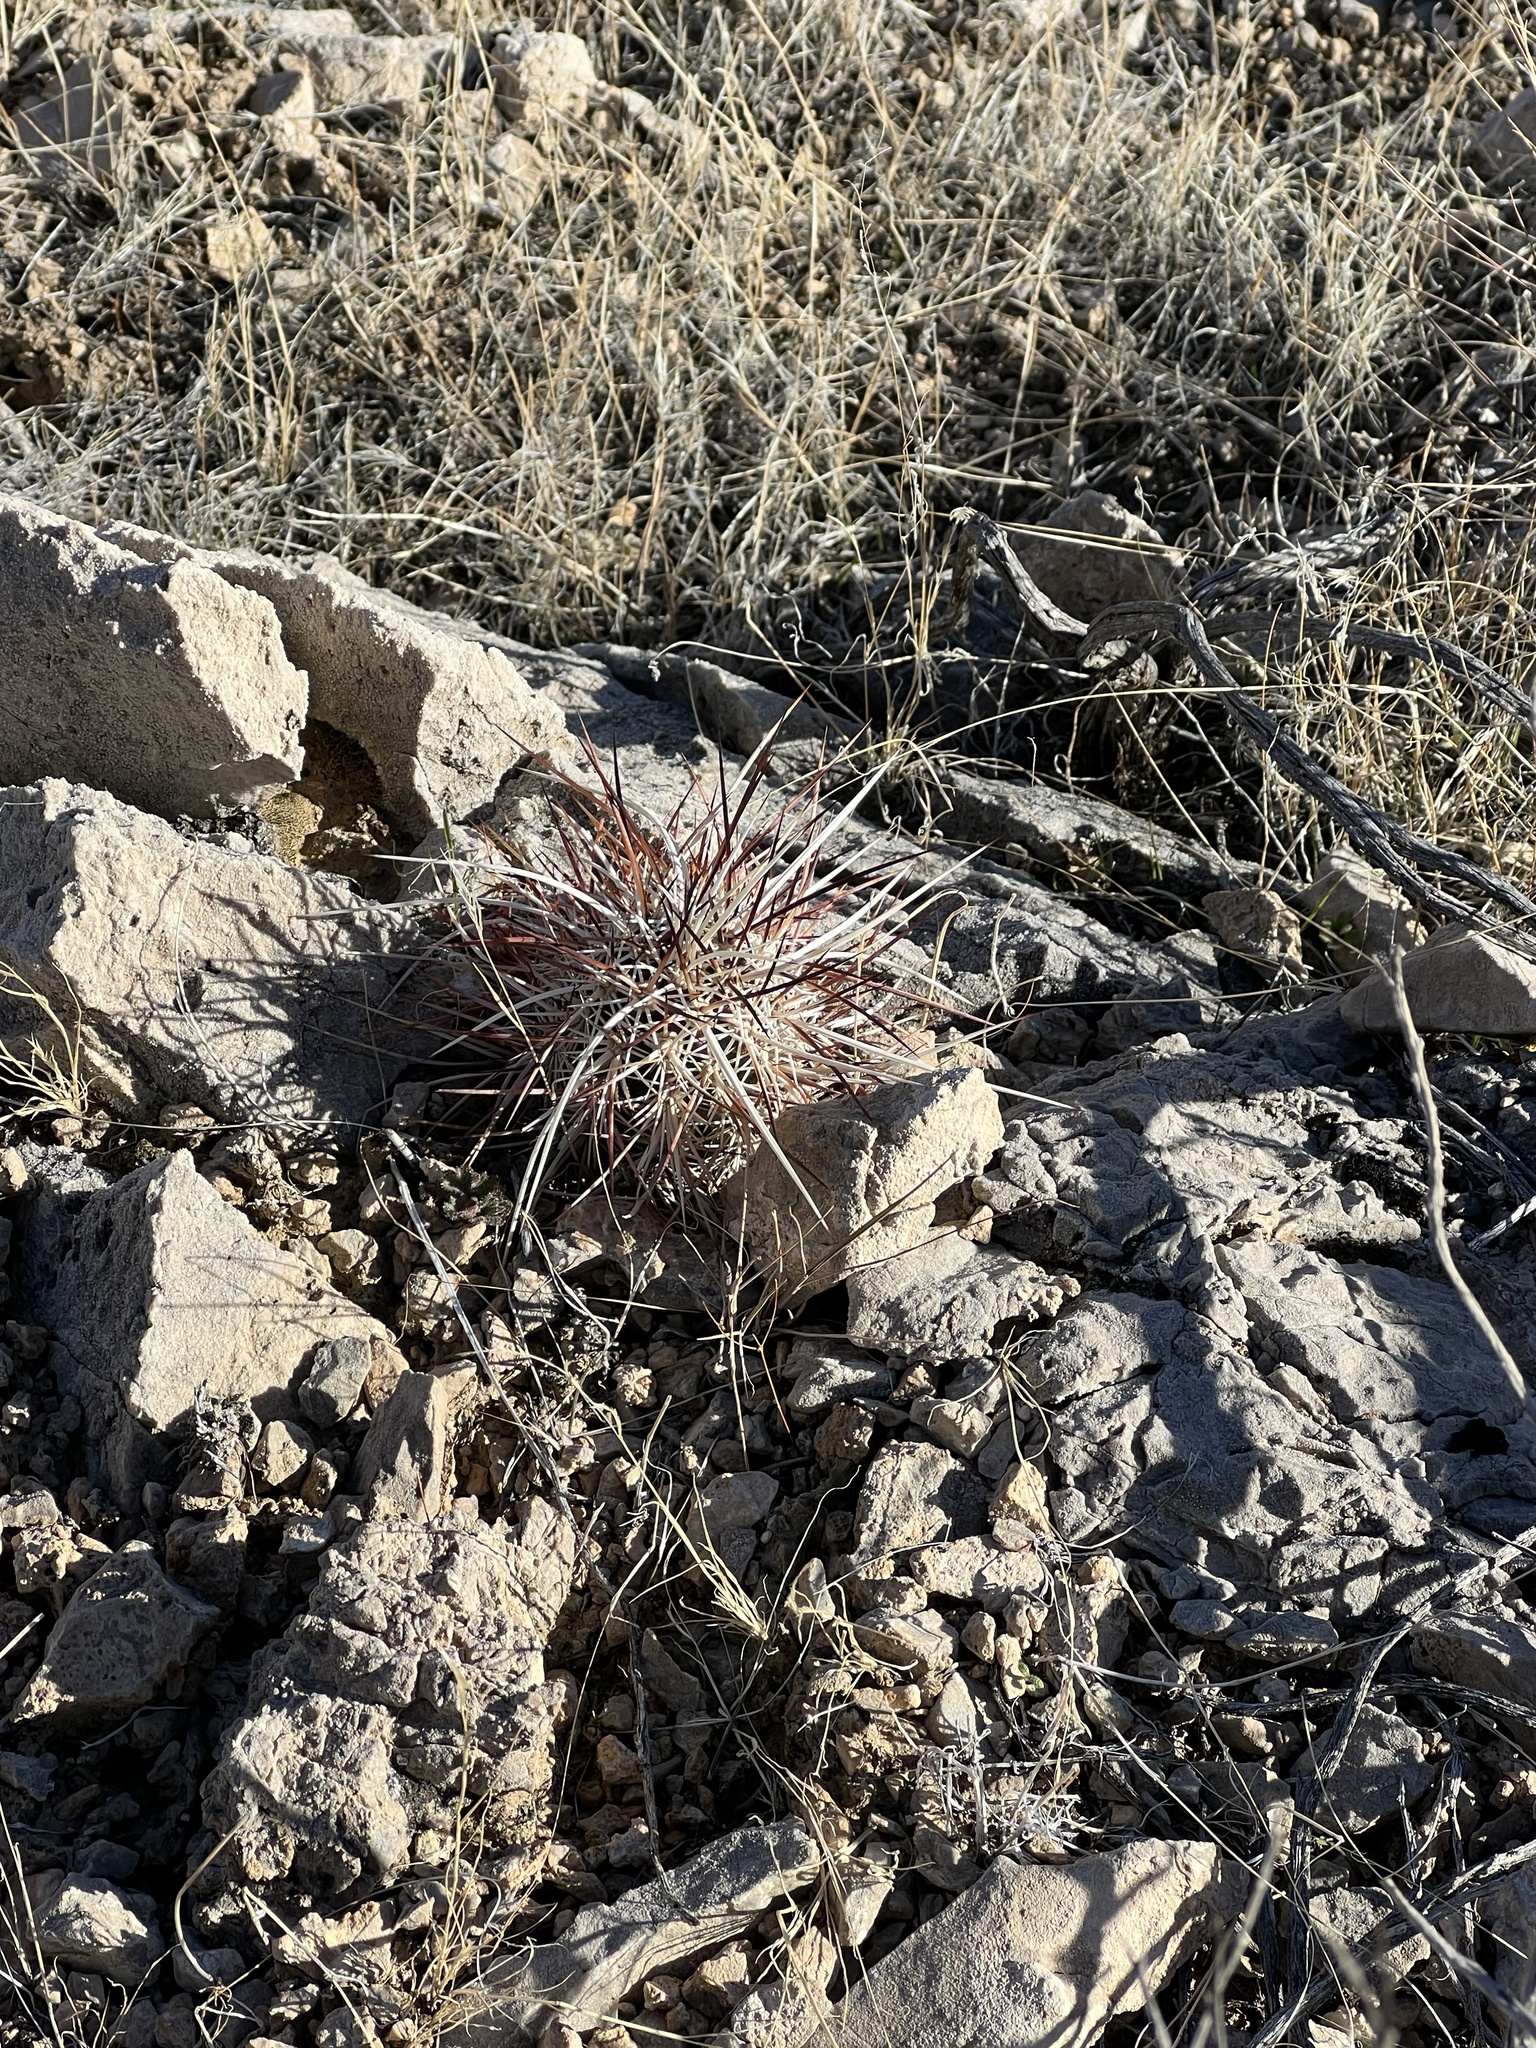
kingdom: Plantae
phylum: Tracheophyta
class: Magnoliopsida
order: Caryophyllales
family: Cactaceae
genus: Echinocereus
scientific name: Echinocereus engelmannii
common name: Engelmann's hedgehog cactus
